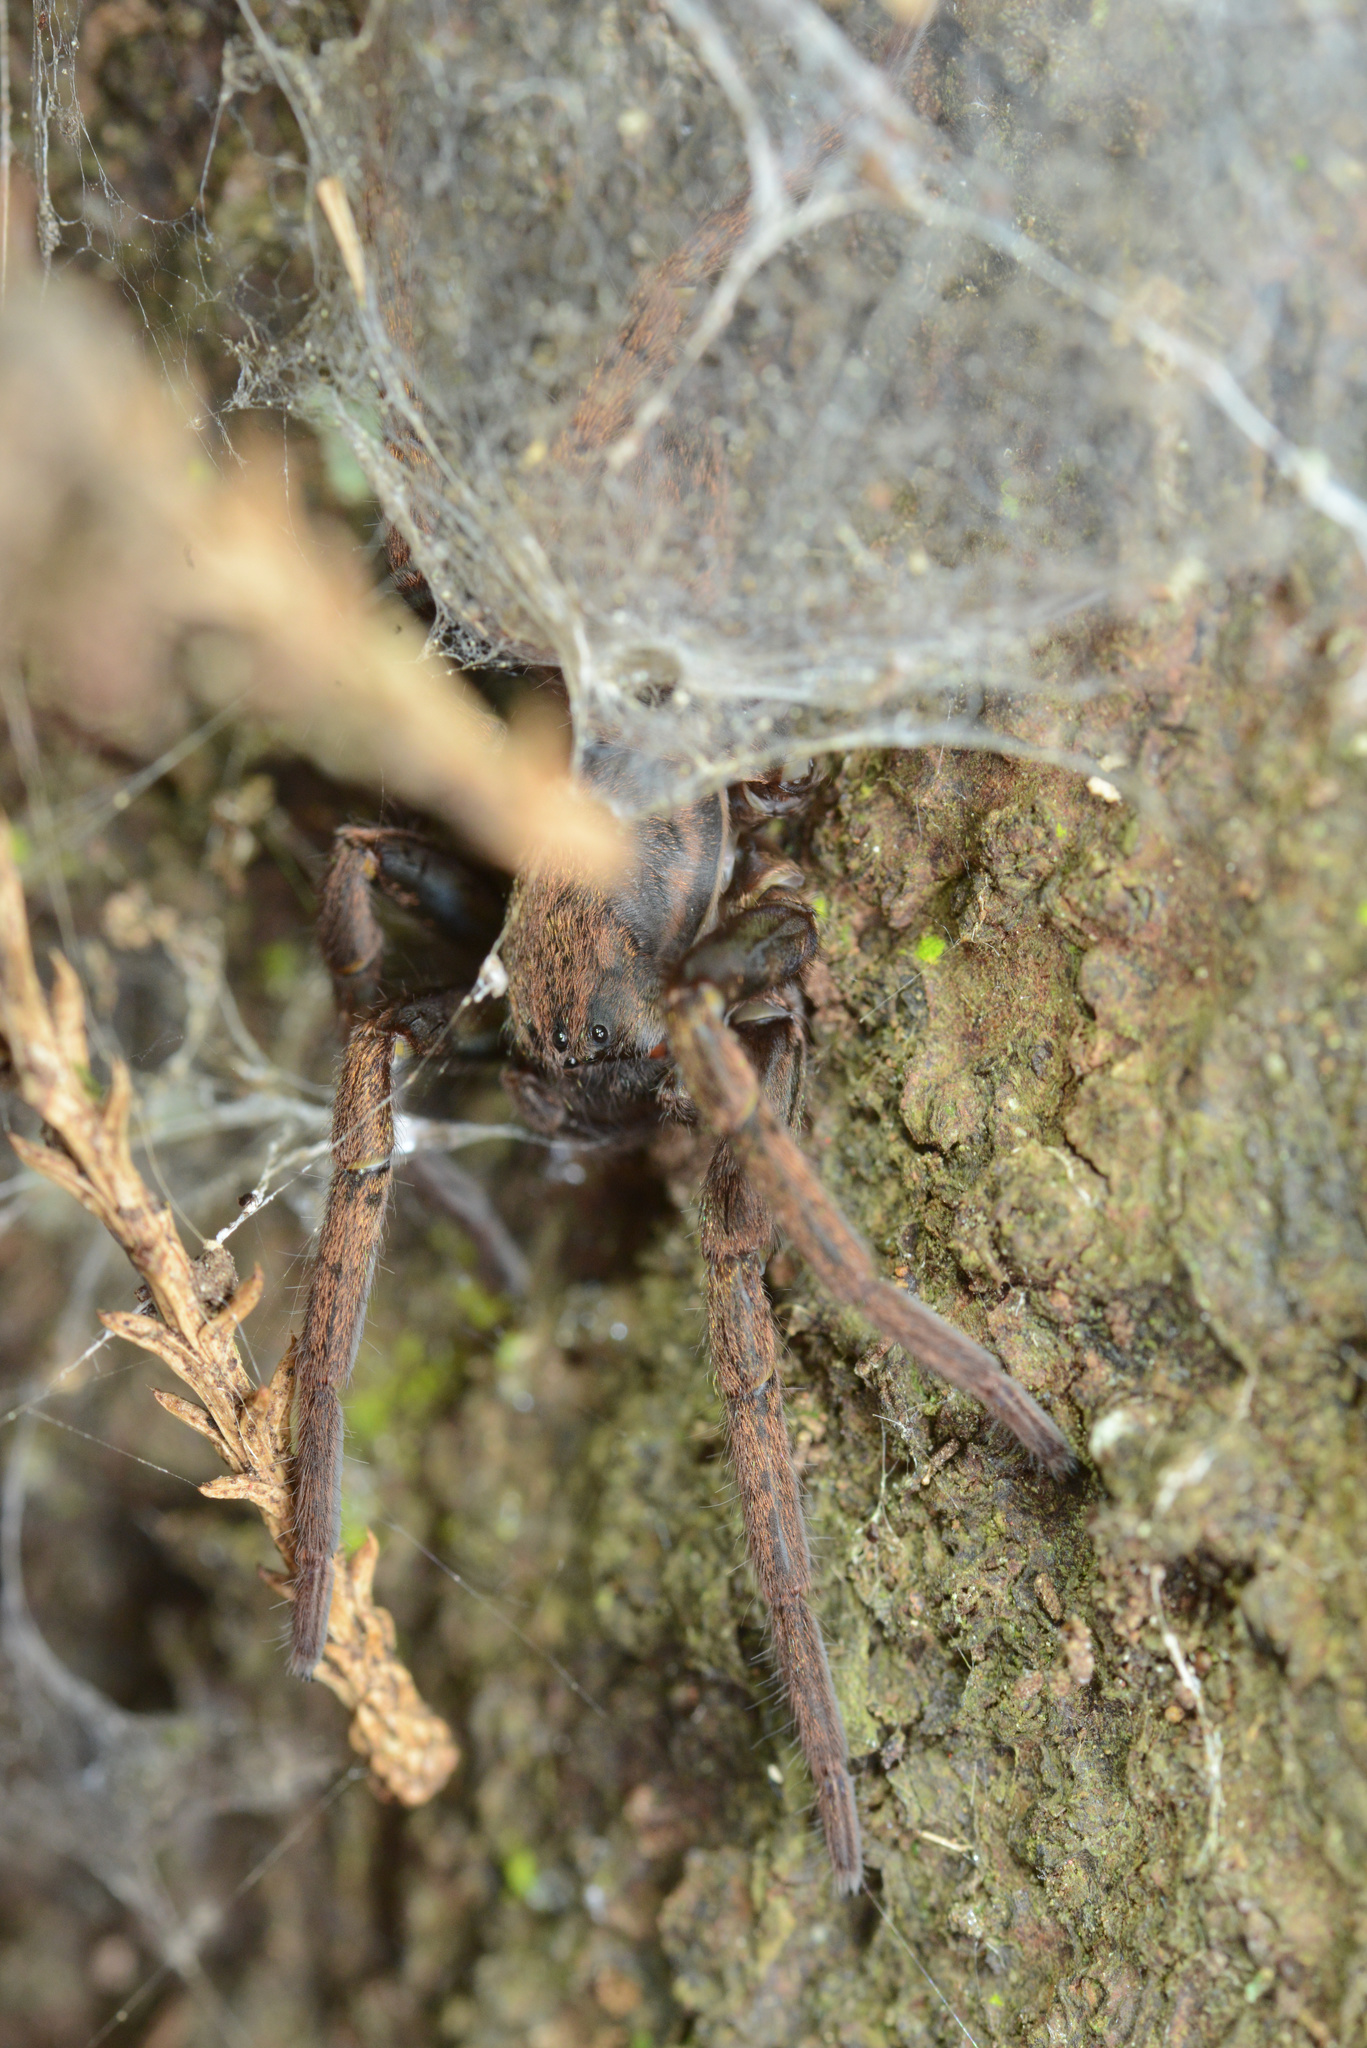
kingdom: Animalia
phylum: Arthropoda
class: Arachnida
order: Araneae
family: Zoropsidae
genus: Uliodon
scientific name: Uliodon
